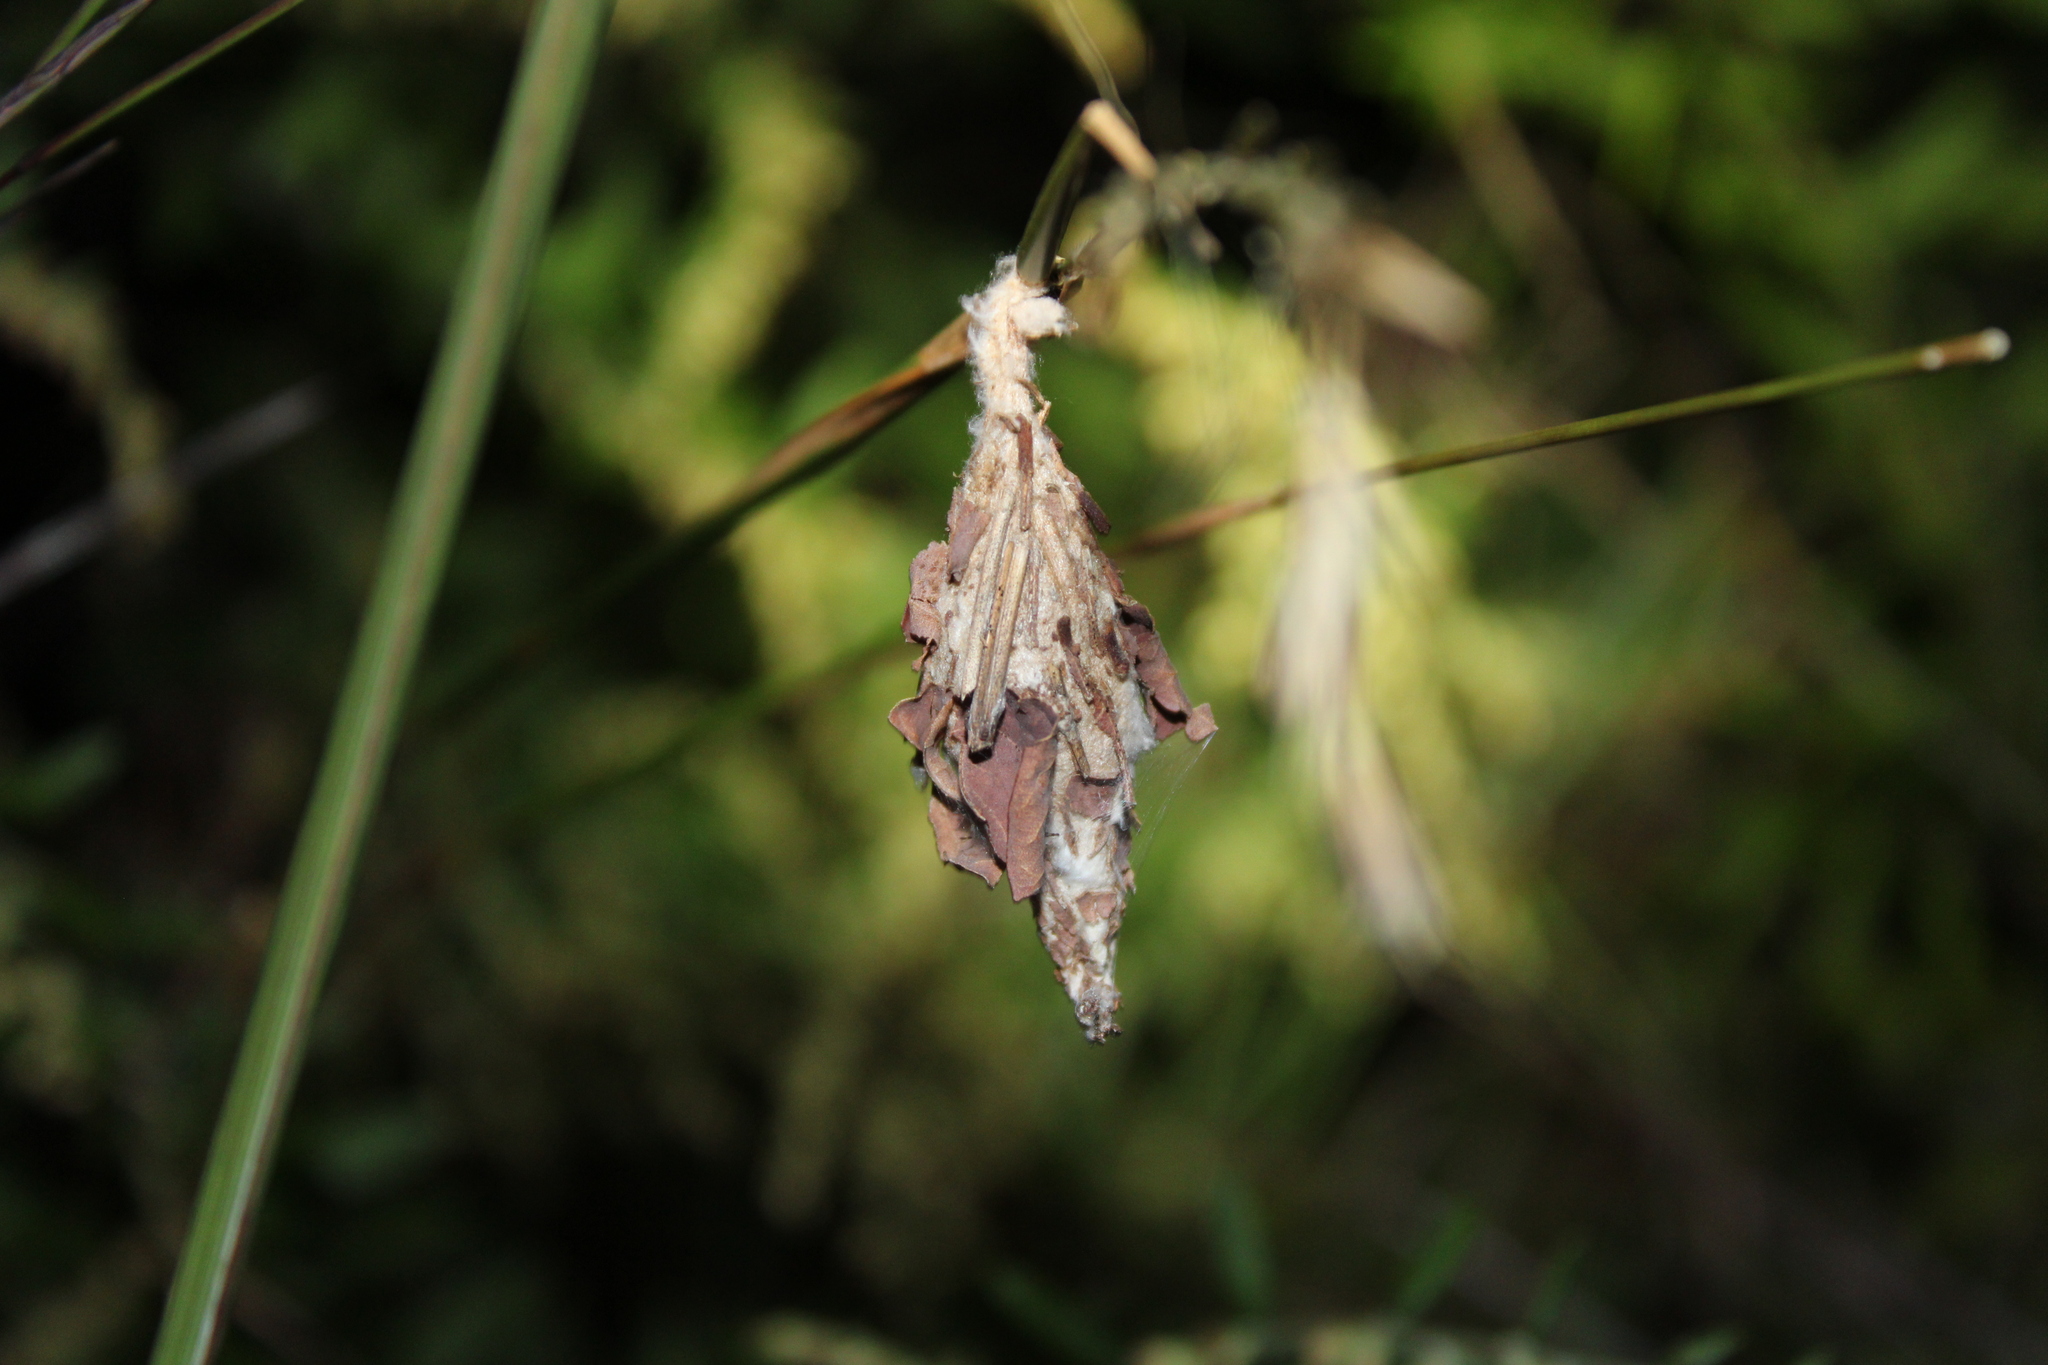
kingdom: Animalia
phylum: Arthropoda
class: Insecta
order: Lepidoptera
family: Psychidae
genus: Thyridopteryx
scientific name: Thyridopteryx ephemeraeformis
